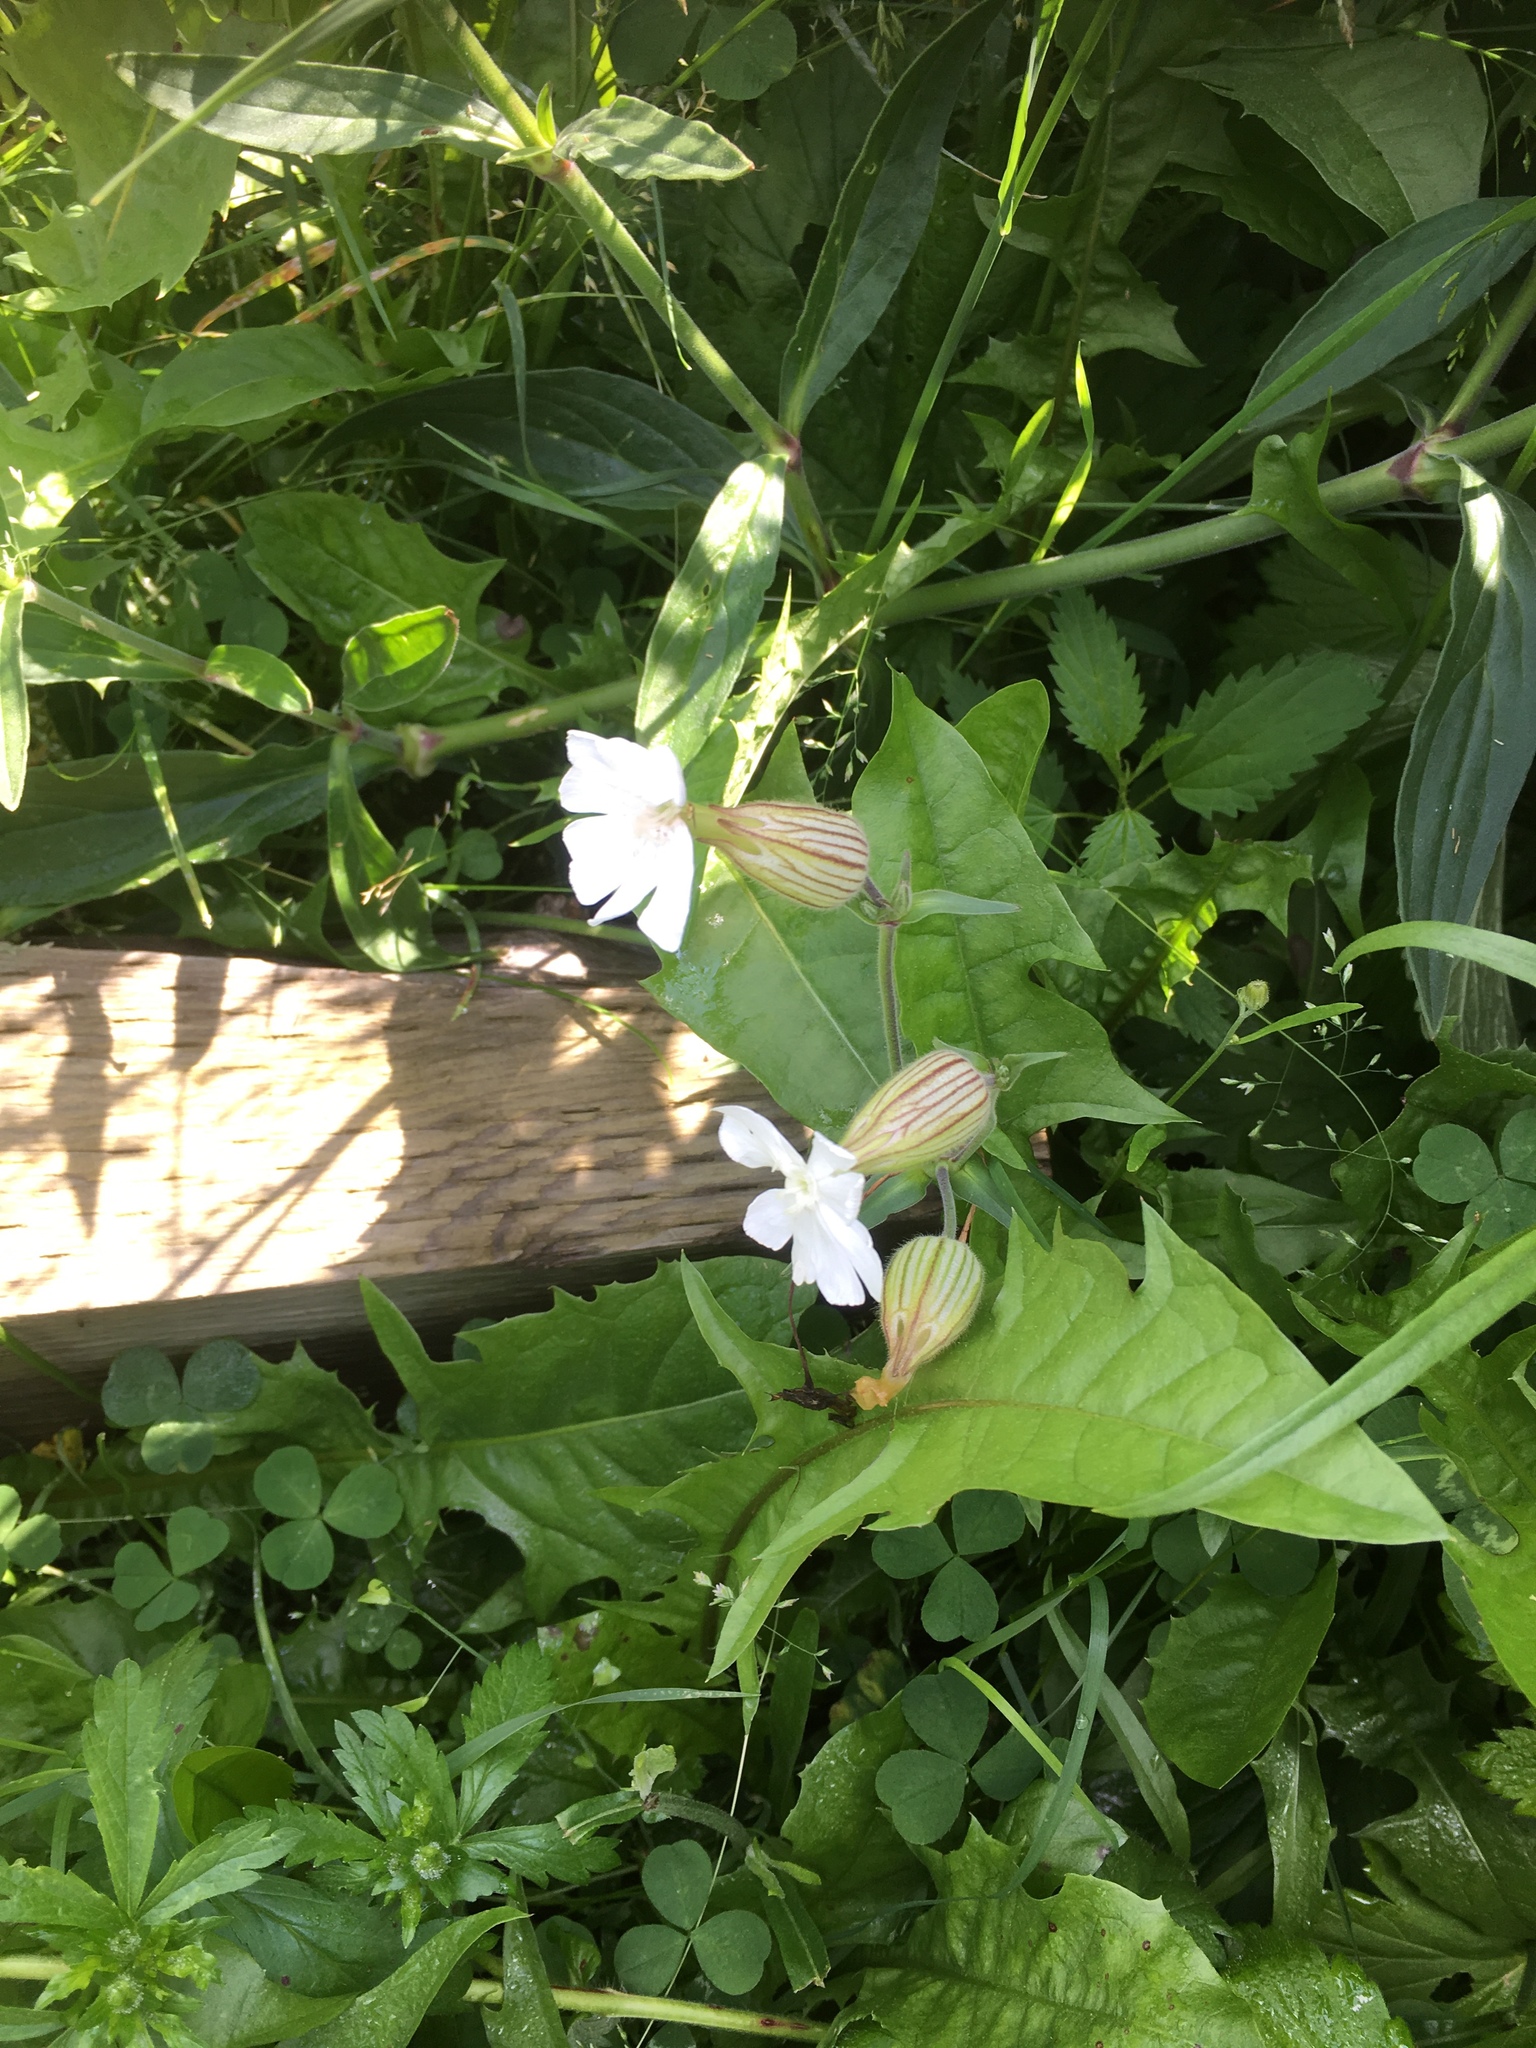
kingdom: Plantae
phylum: Tracheophyta
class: Magnoliopsida
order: Caryophyllales
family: Caryophyllaceae
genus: Silene
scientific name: Silene latifolia
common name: White campion
